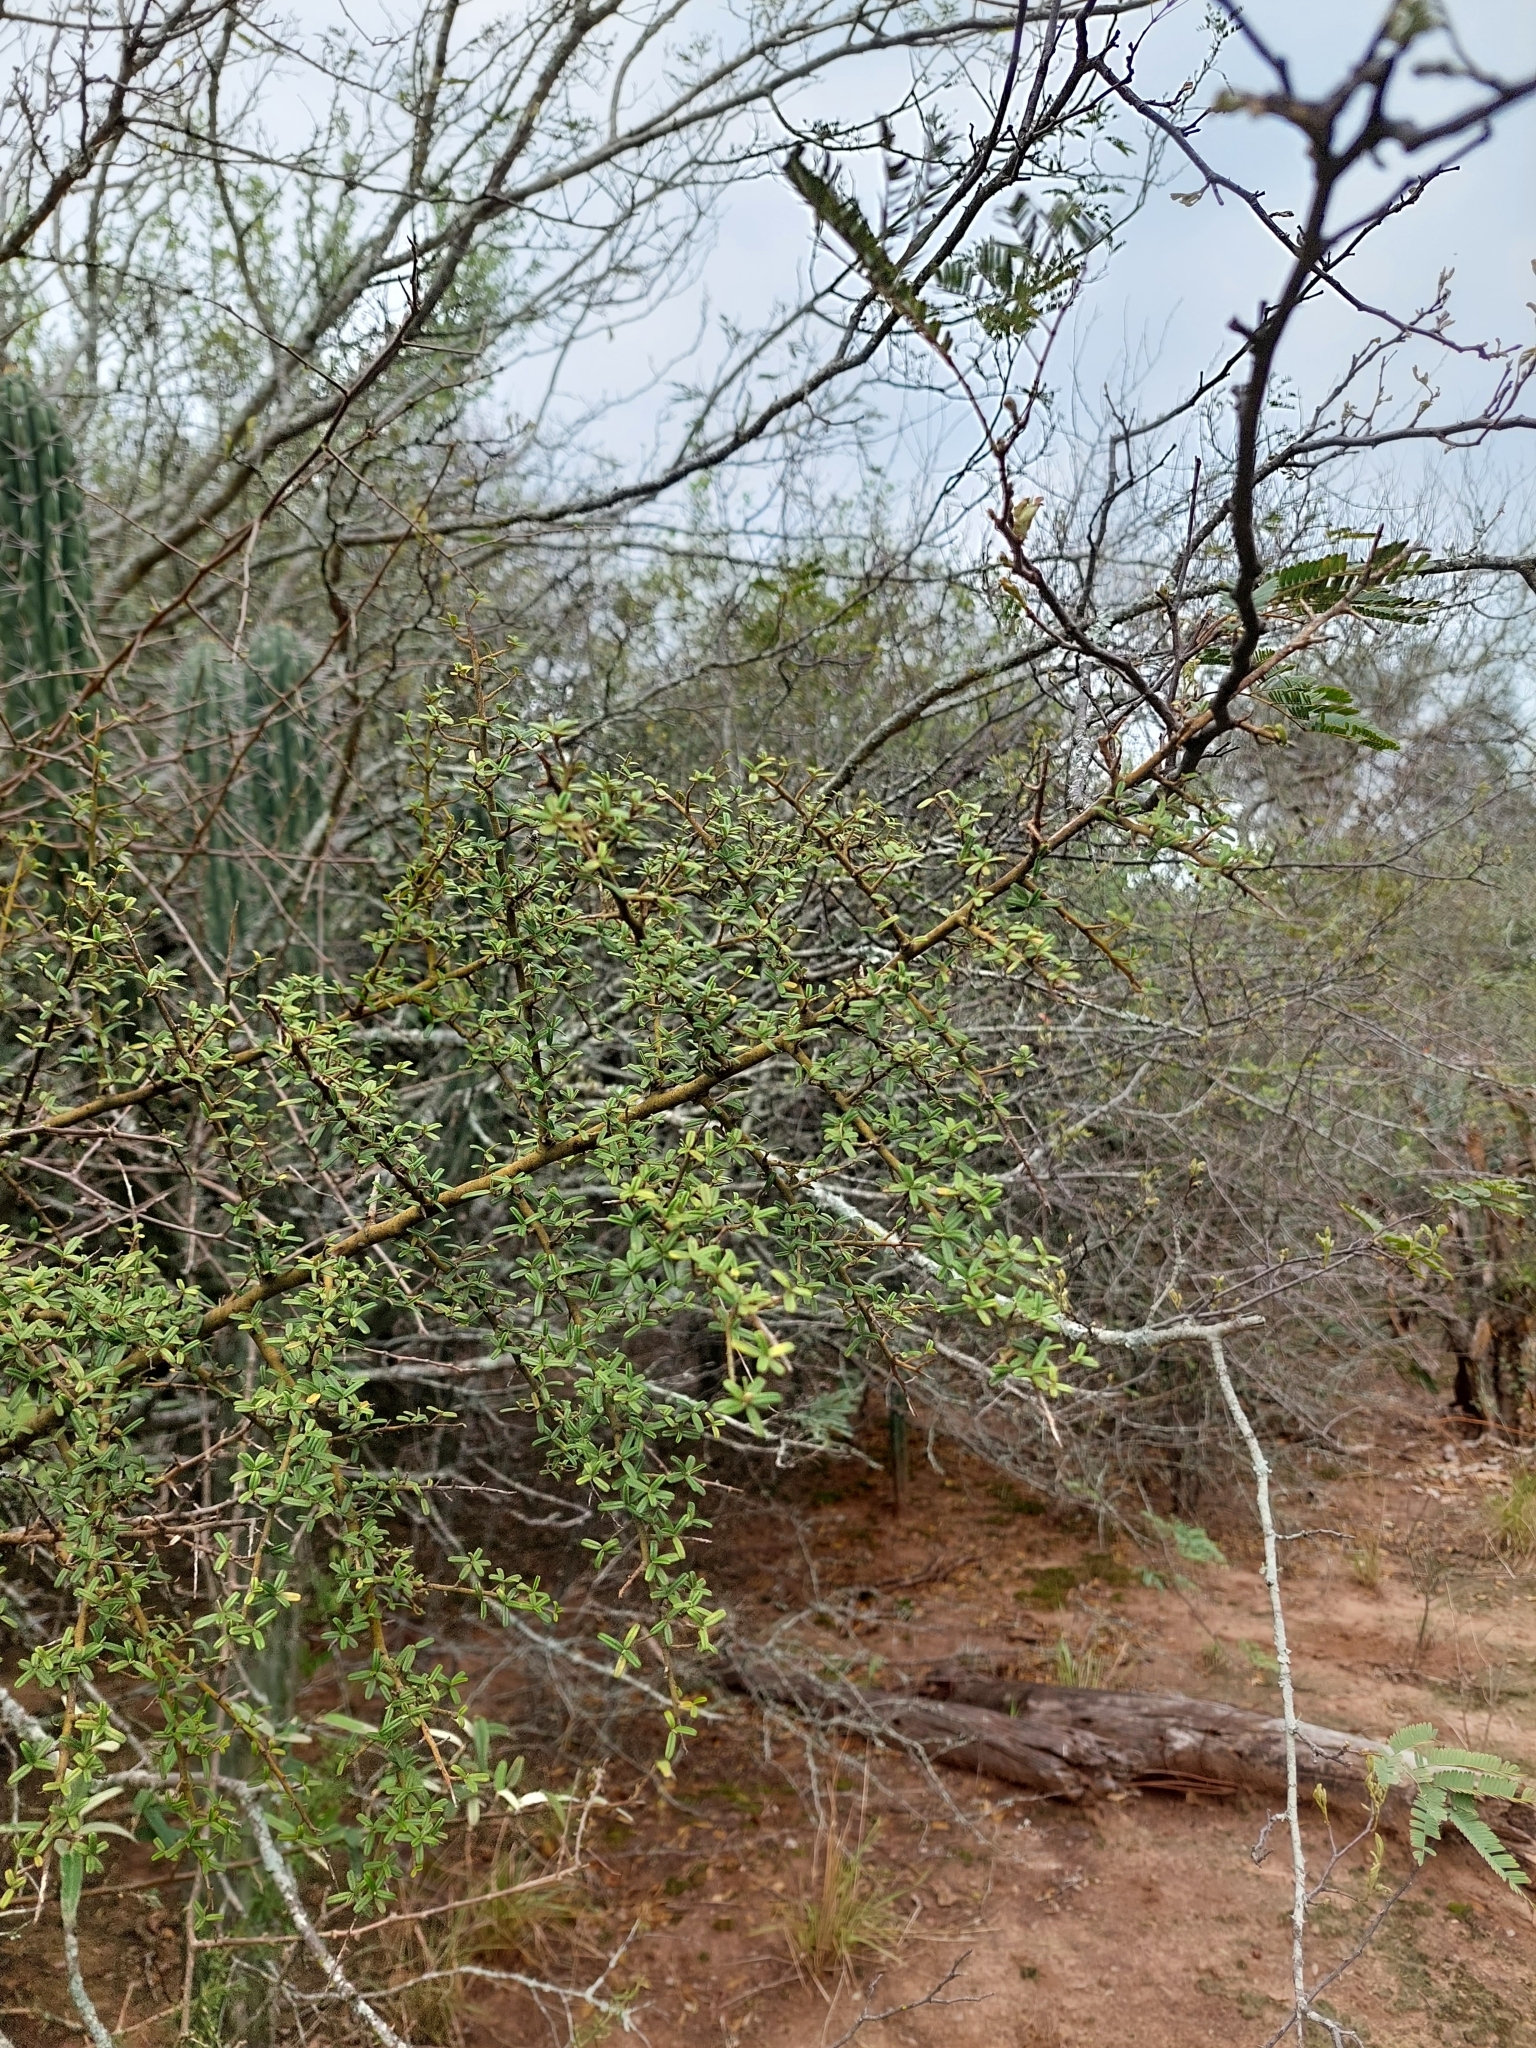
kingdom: Plantae
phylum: Tracheophyta
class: Magnoliopsida
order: Brassicales
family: Capparaceae
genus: Atamisquea
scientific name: Atamisquea emarginata
